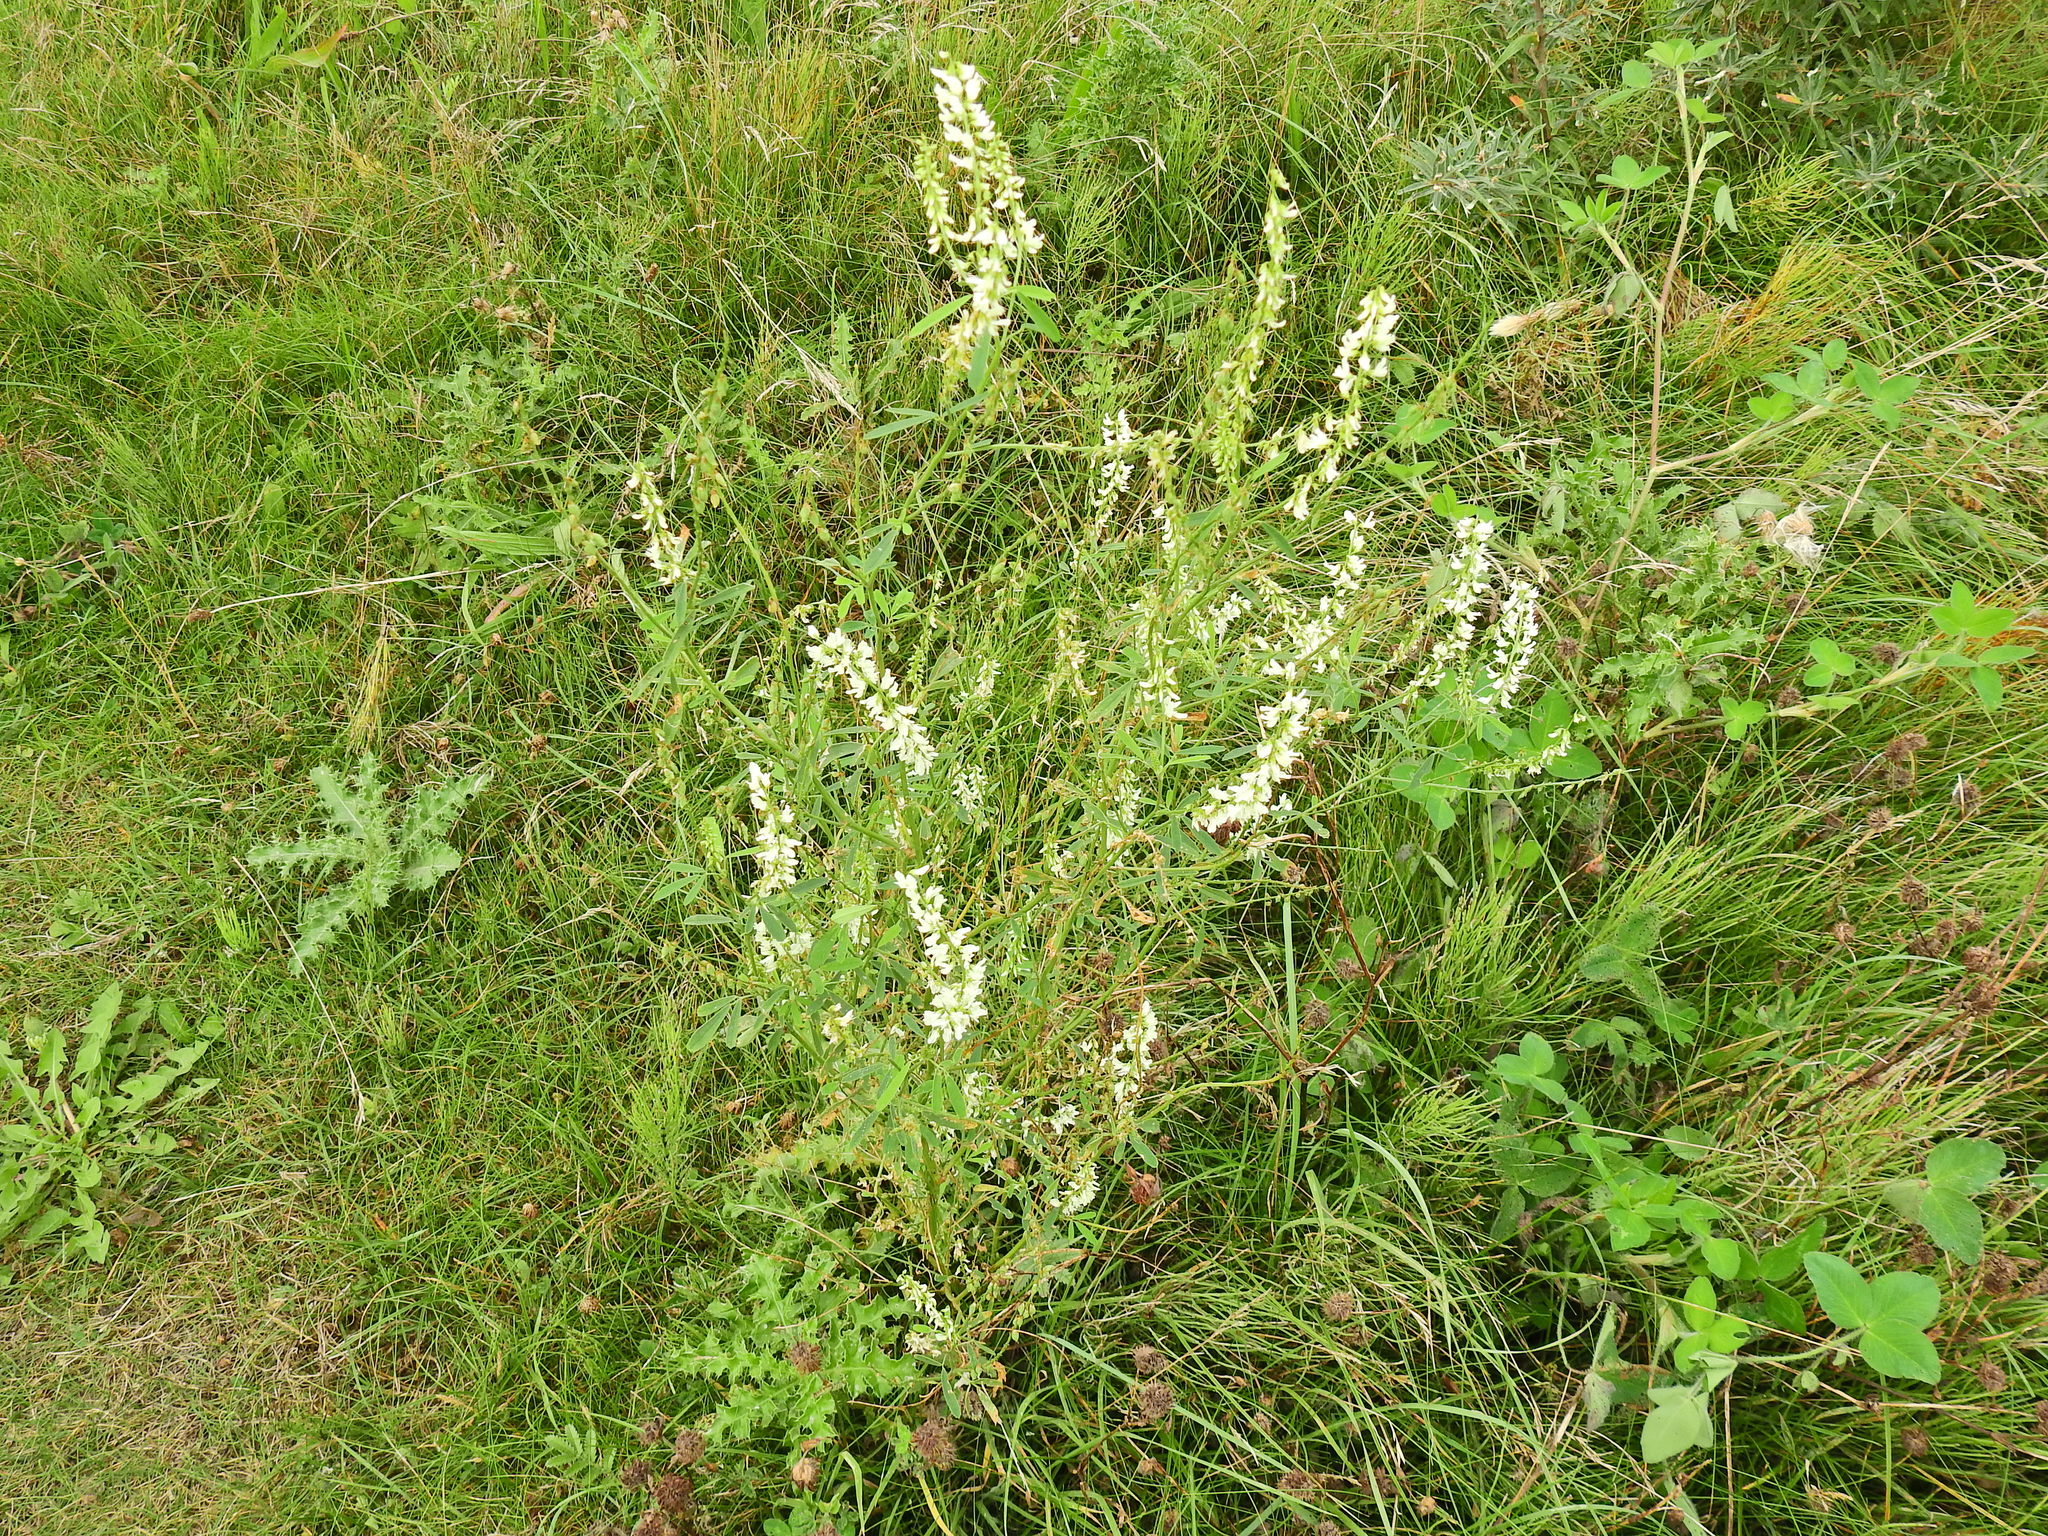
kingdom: Plantae
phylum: Tracheophyta
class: Magnoliopsida
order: Fabales
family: Fabaceae
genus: Melilotus
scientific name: Melilotus albus
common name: White melilot
